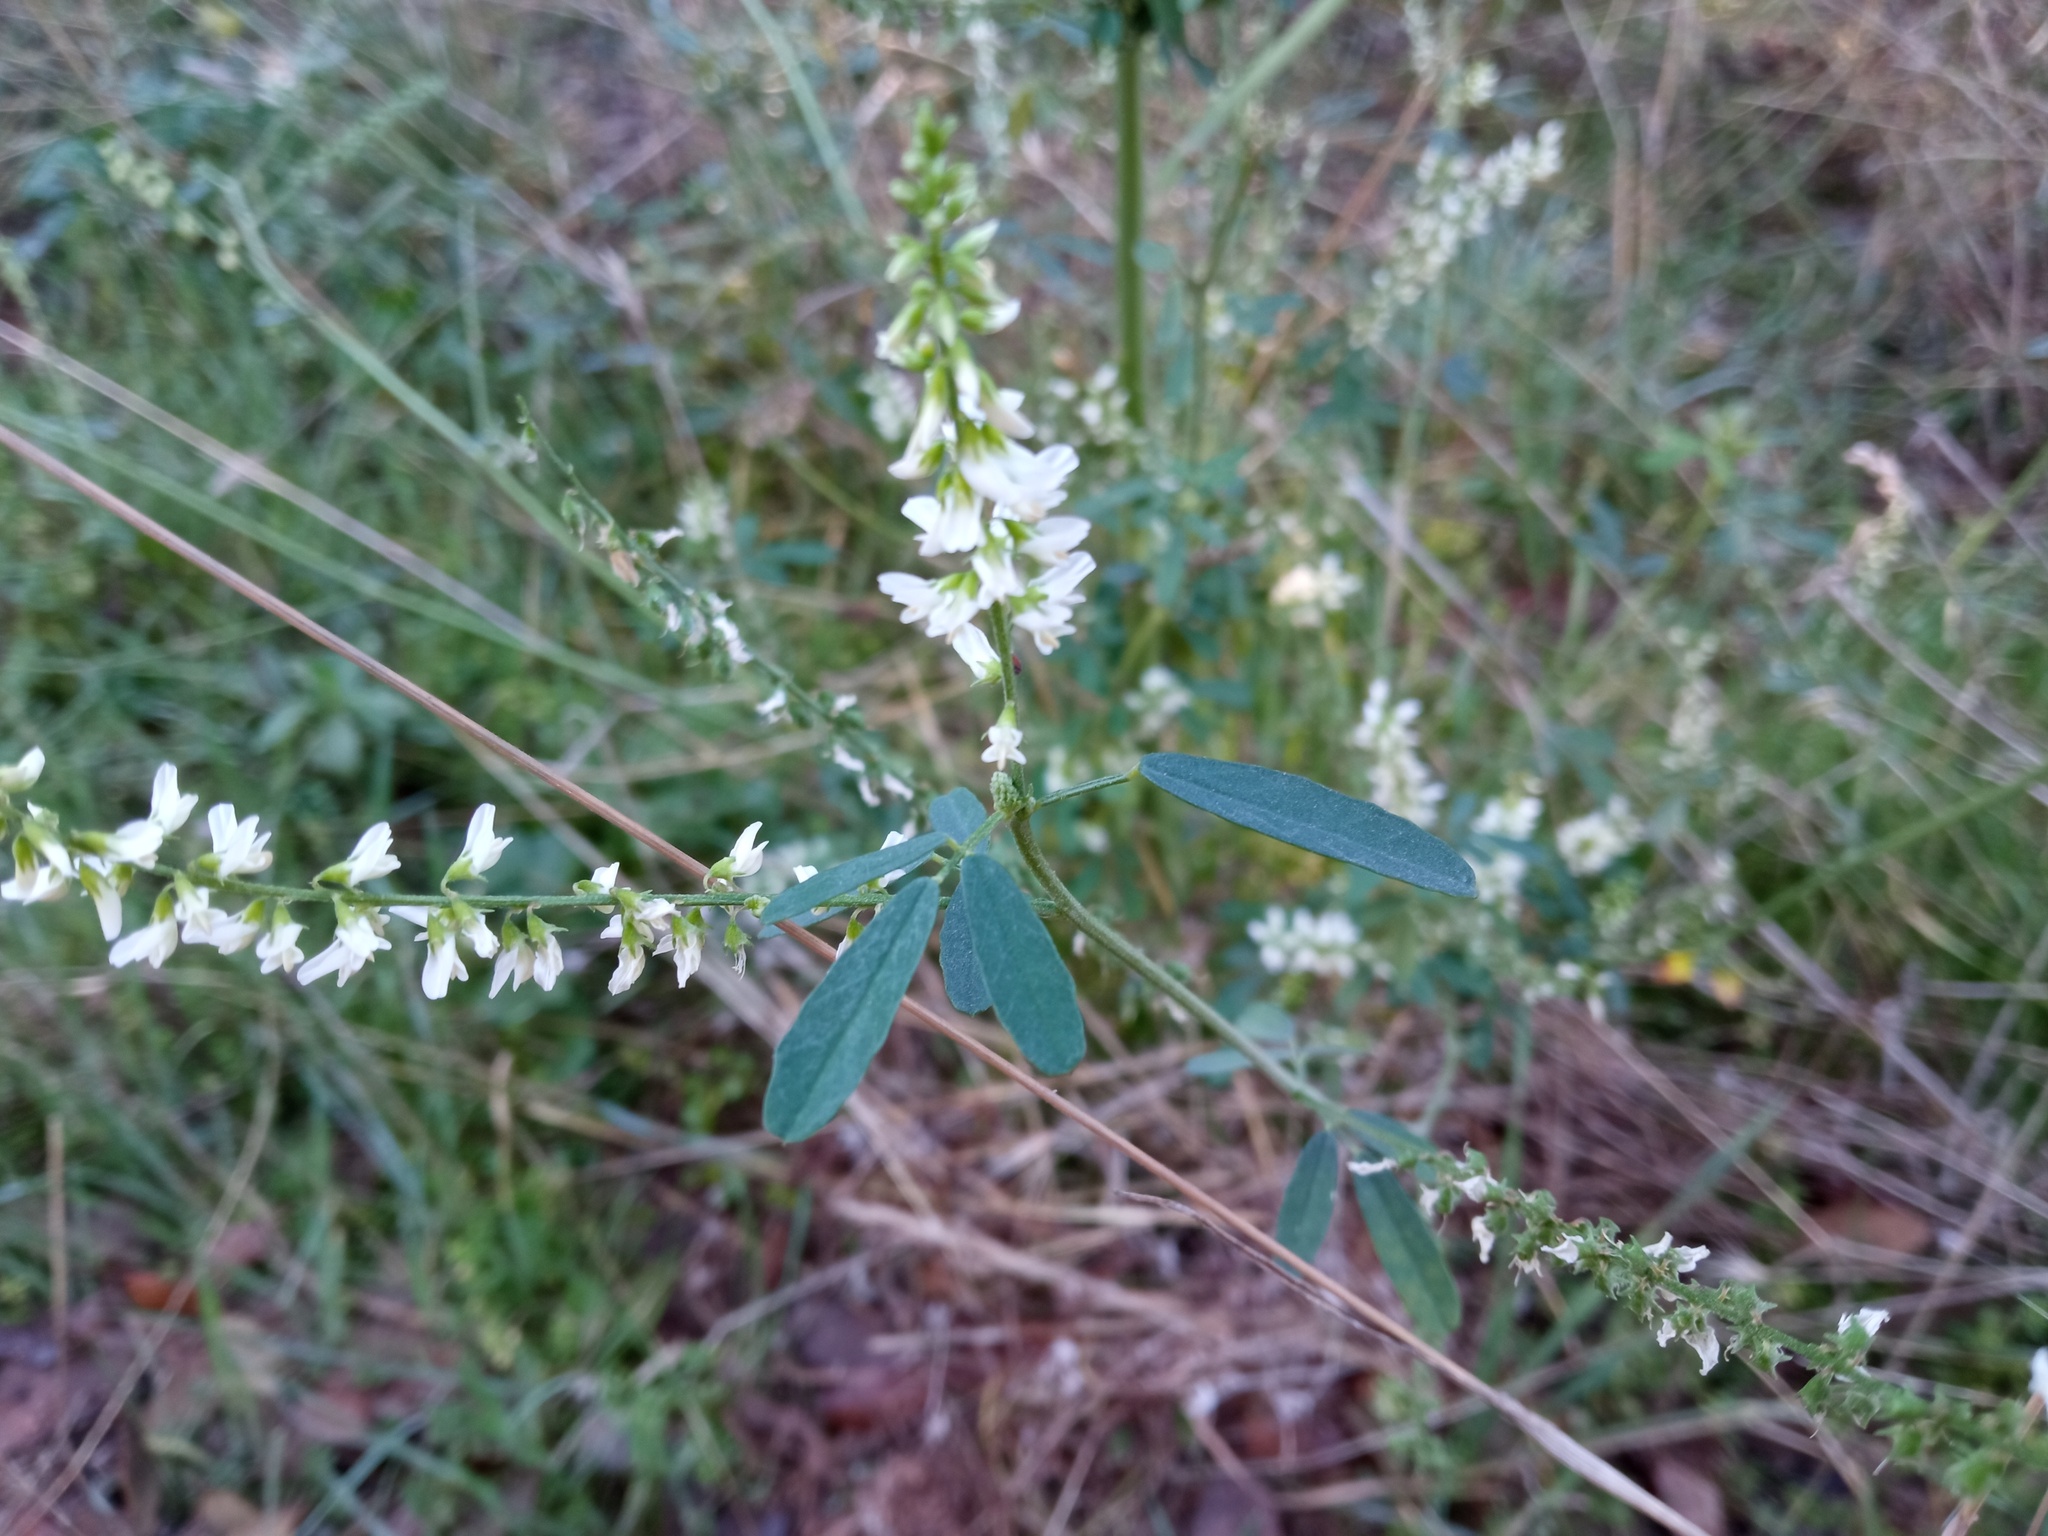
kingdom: Plantae
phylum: Tracheophyta
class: Magnoliopsida
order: Fabales
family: Fabaceae
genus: Melilotus
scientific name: Melilotus albus
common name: White melilot
